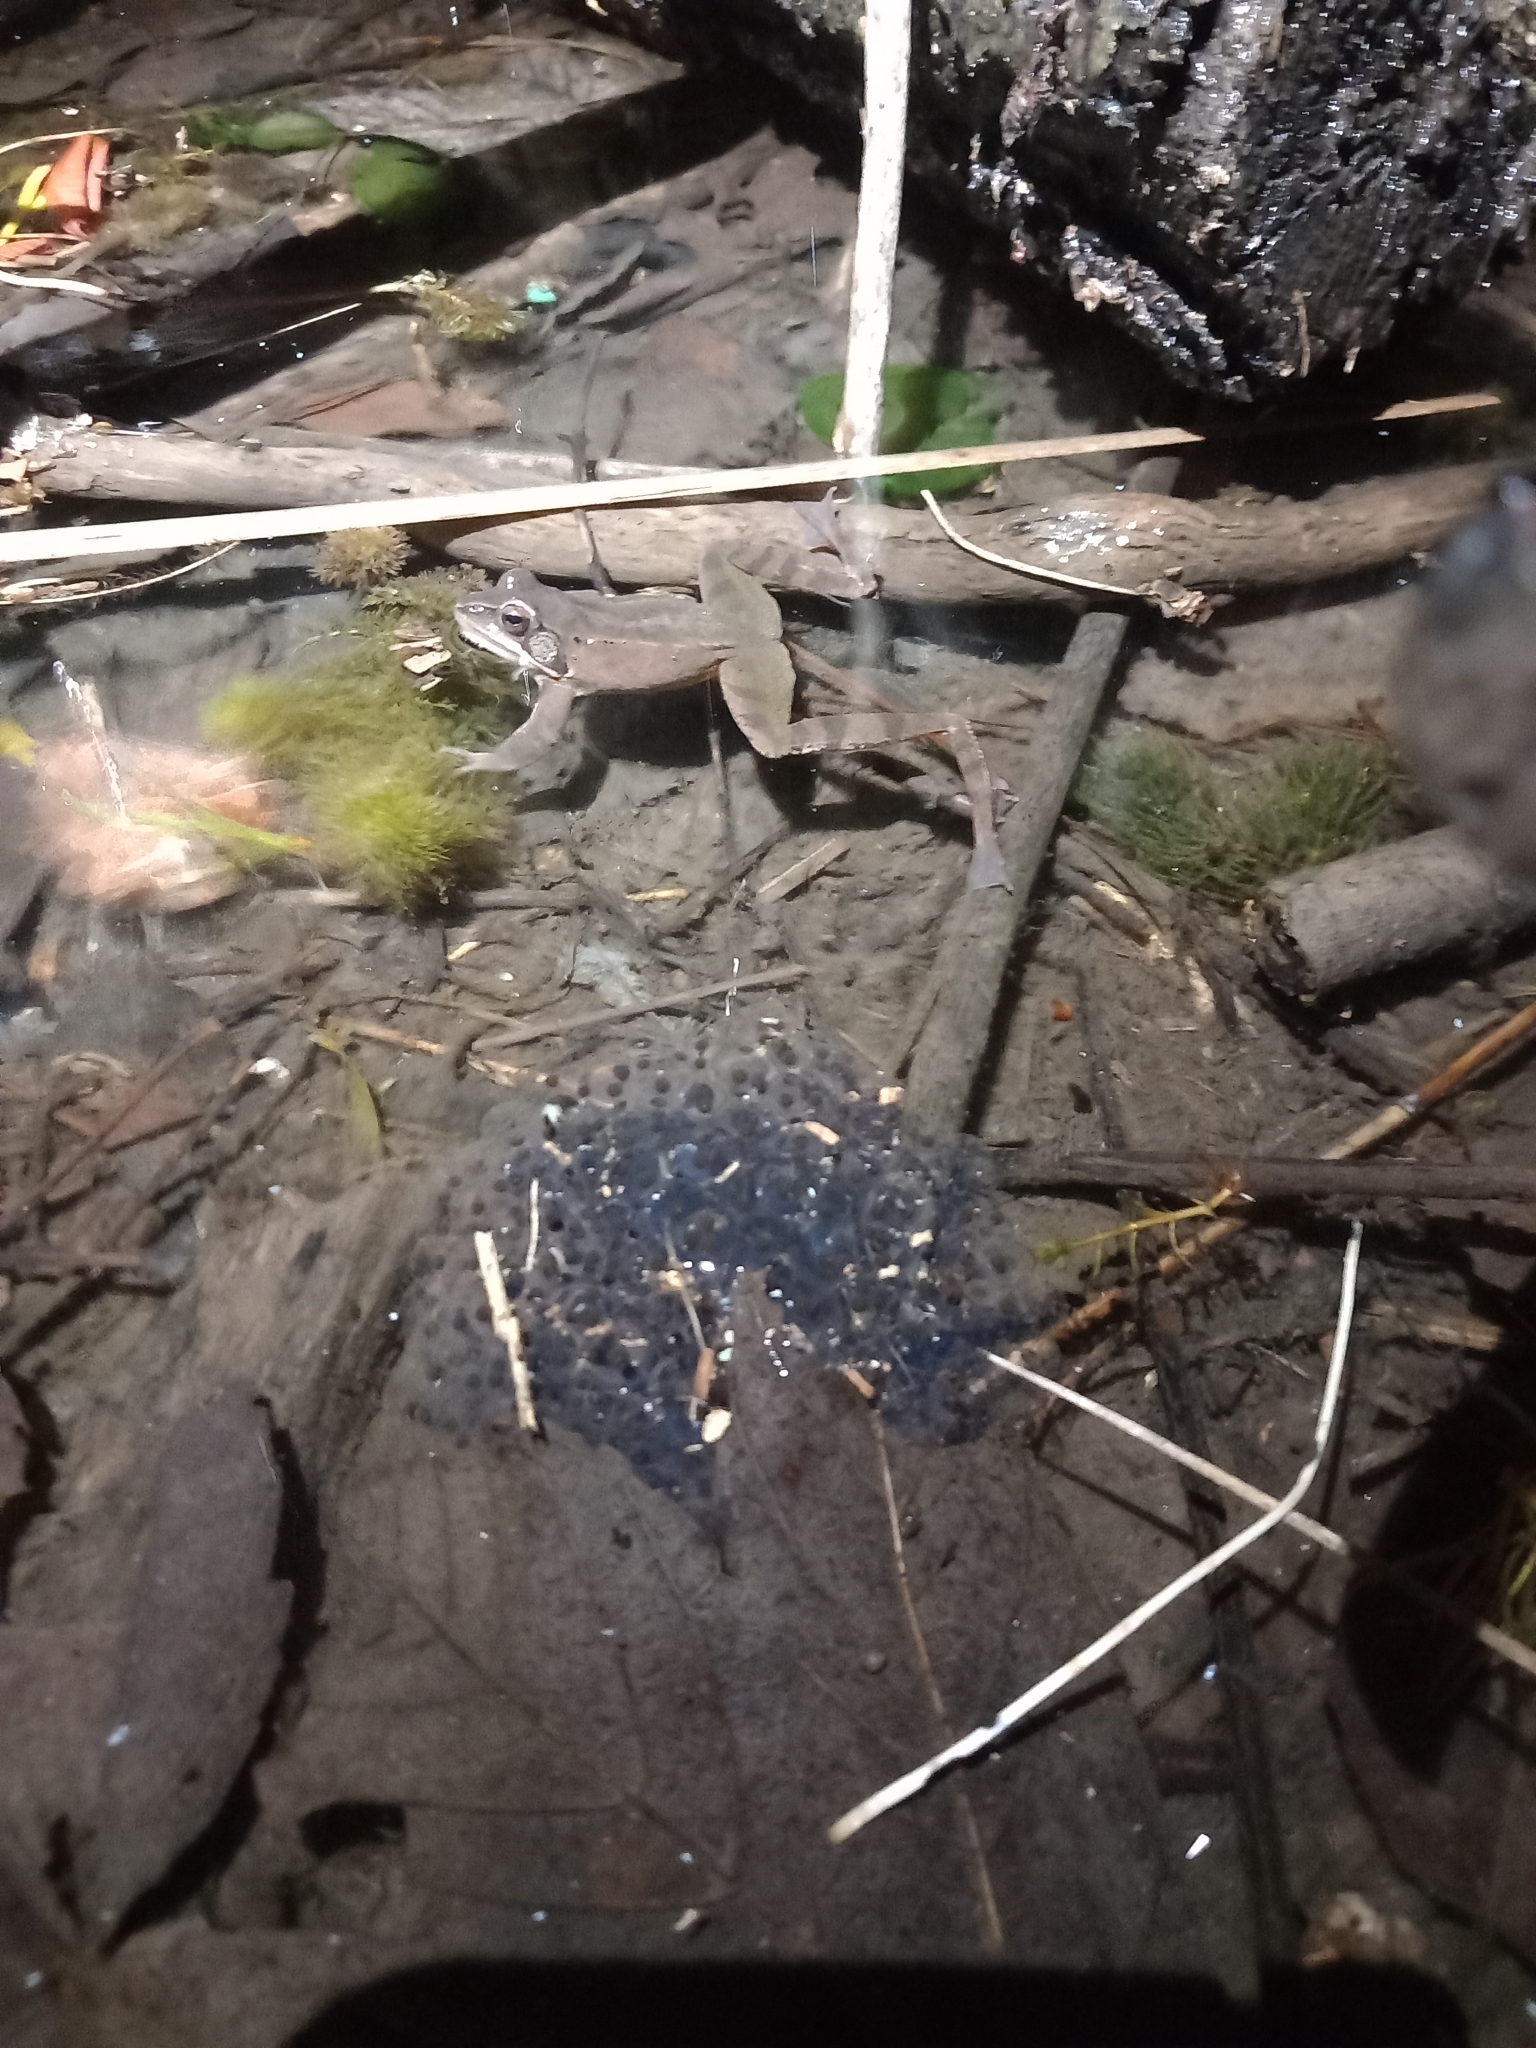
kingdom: Animalia
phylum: Chordata
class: Amphibia
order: Anura
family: Ranidae
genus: Rana
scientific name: Rana dalmatina
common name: Agile frog
